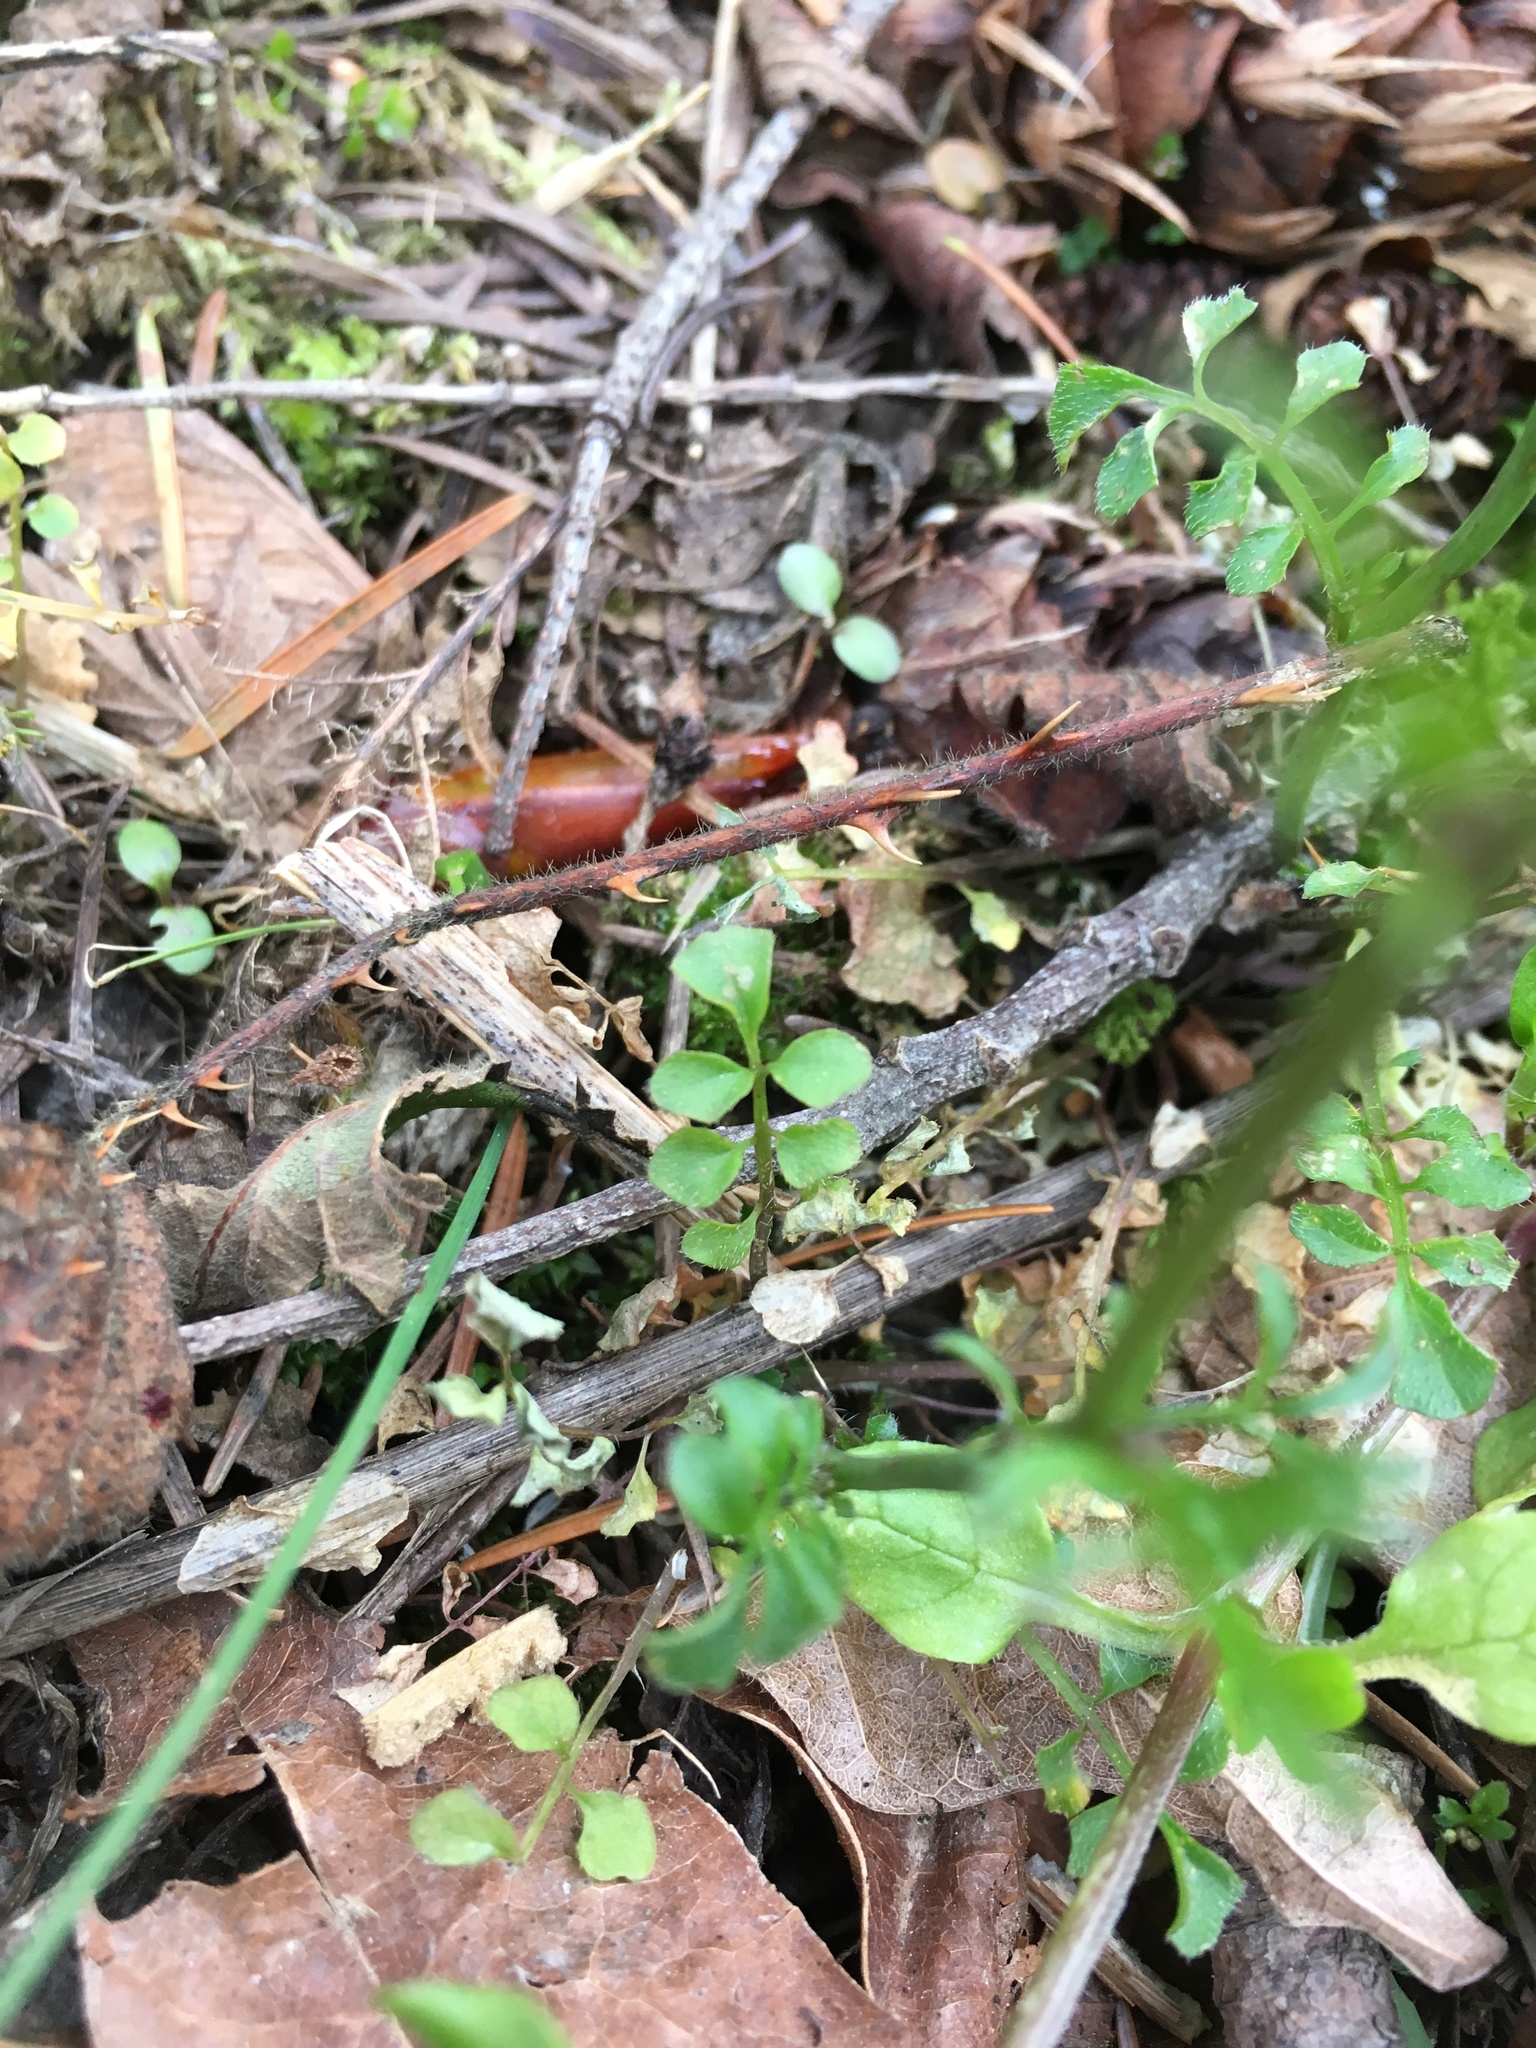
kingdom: Plantae
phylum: Tracheophyta
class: Magnoliopsida
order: Brassicales
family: Brassicaceae
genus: Cardamine
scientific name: Cardamine hirsuta
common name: Hairy bittercress
